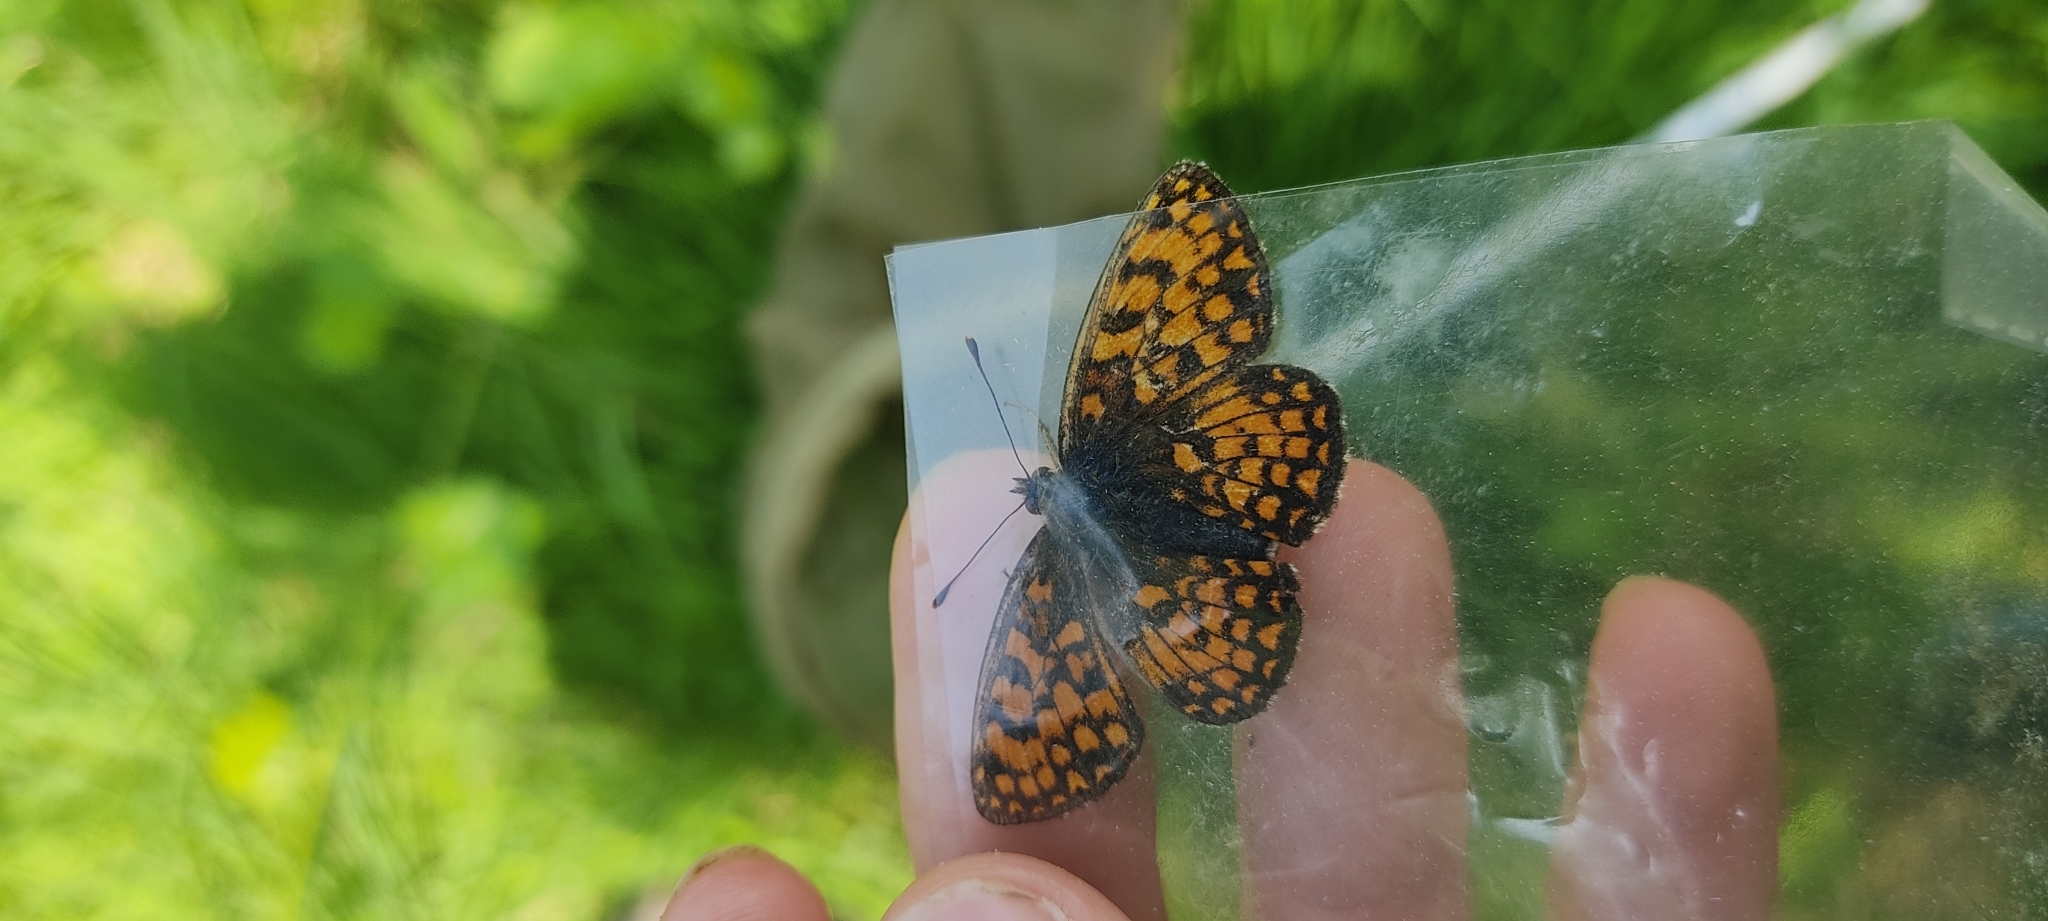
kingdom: Animalia
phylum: Arthropoda
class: Insecta
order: Lepidoptera
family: Nymphalidae
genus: Mellicta
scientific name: Mellicta athalia
